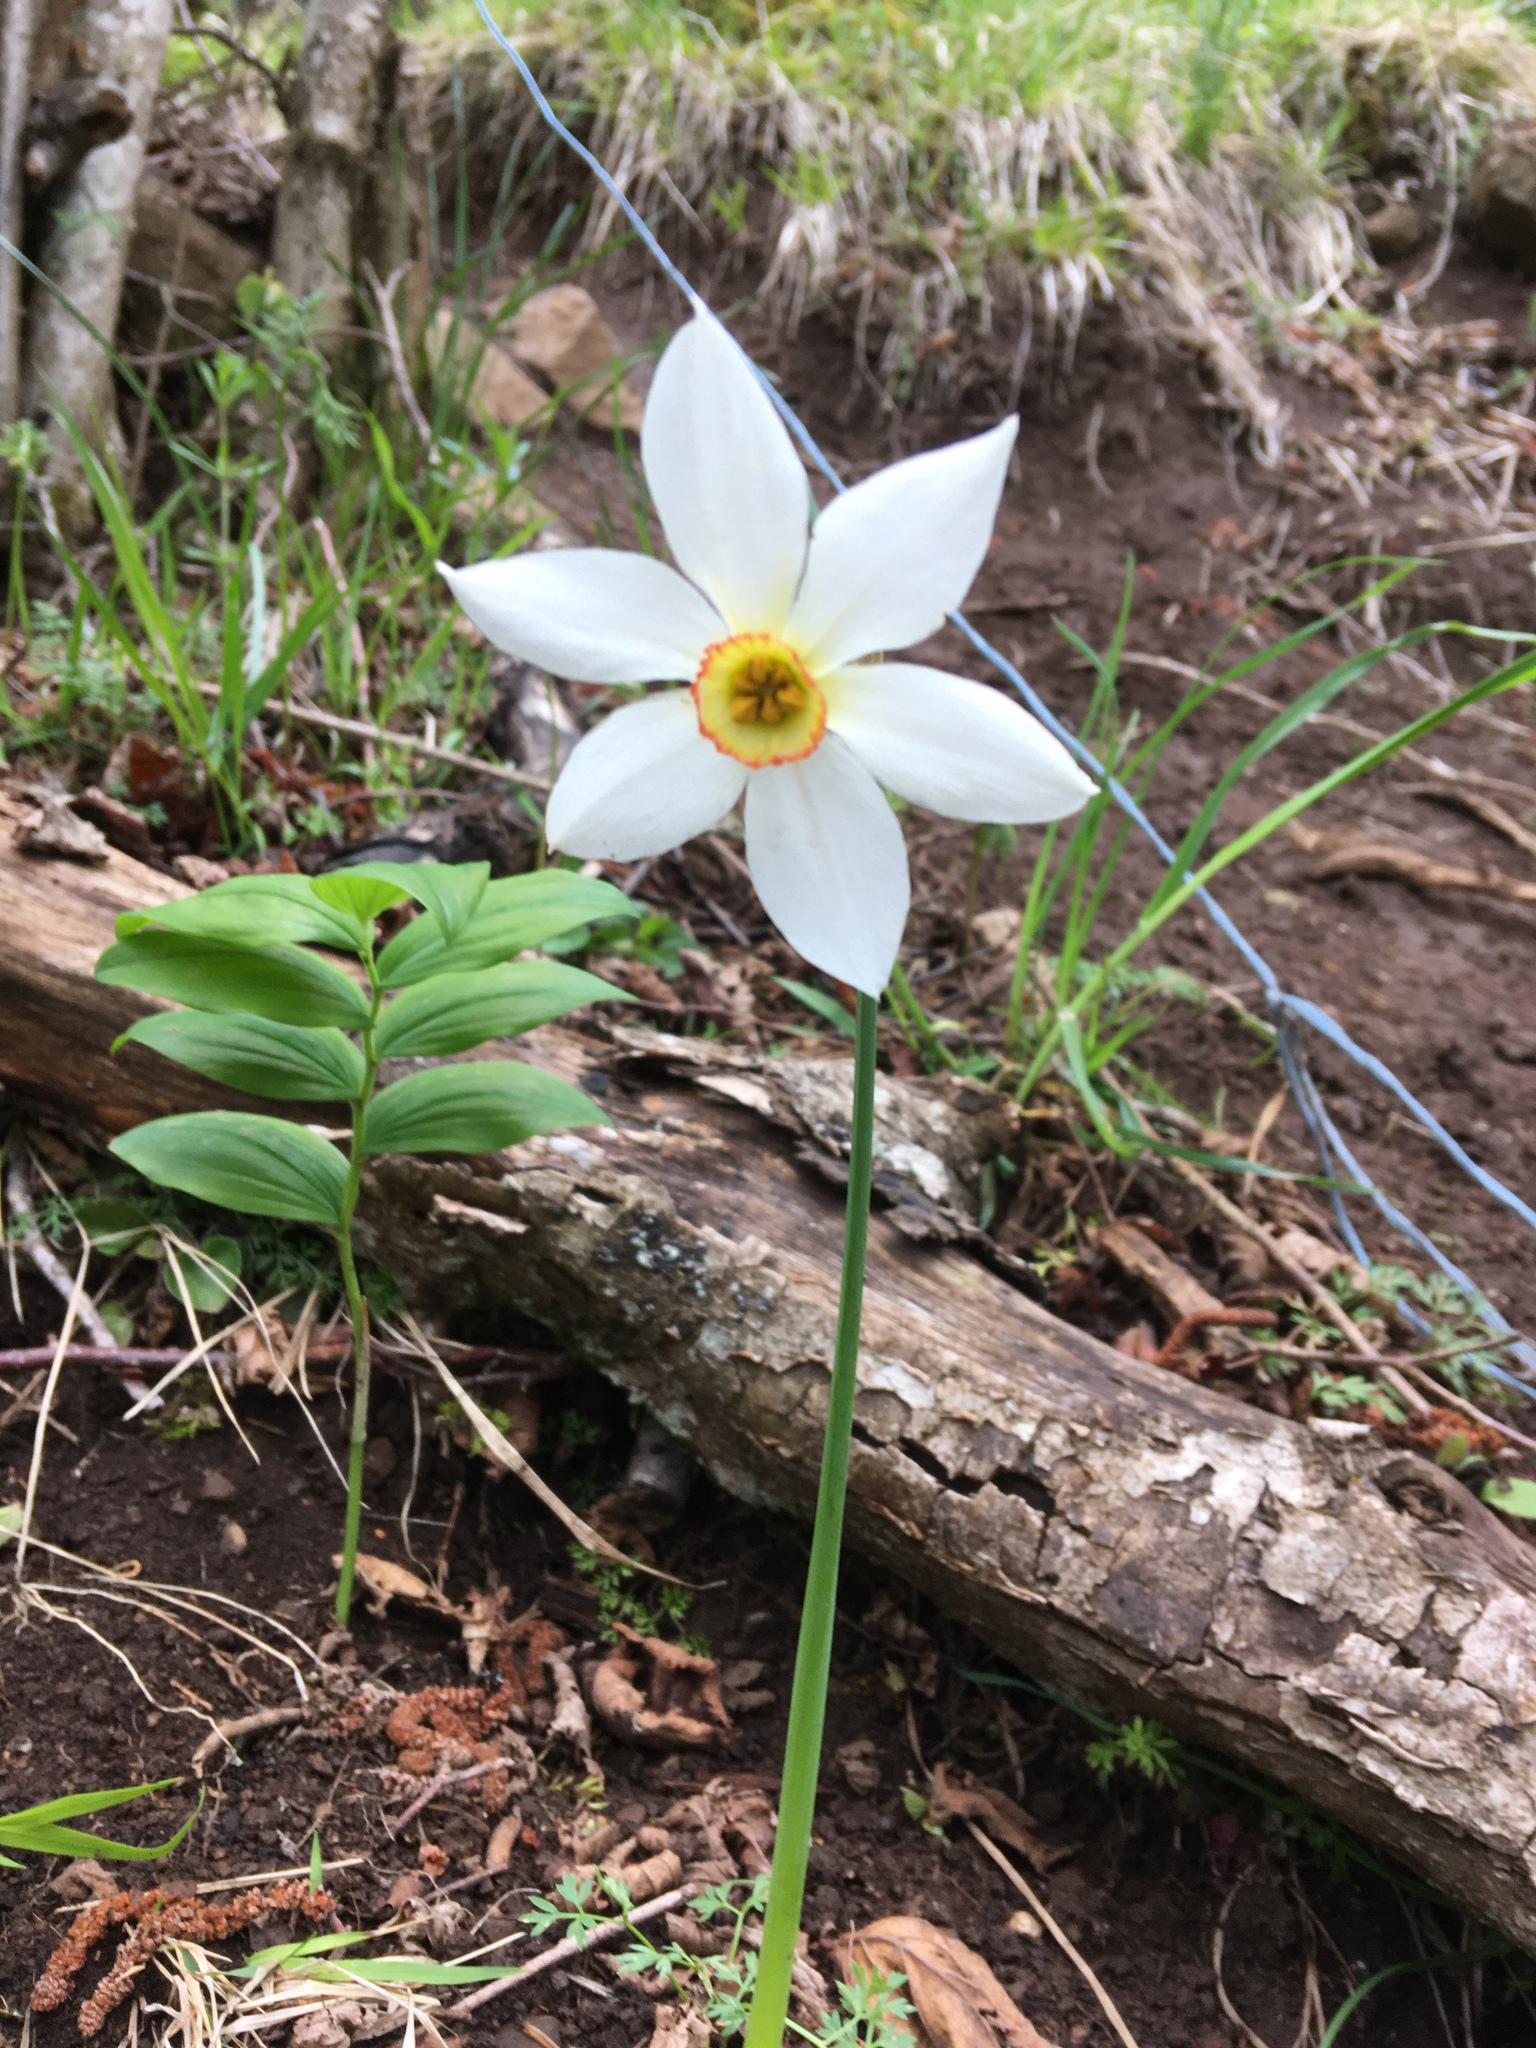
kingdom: Plantae
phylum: Tracheophyta
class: Liliopsida
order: Asparagales
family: Amaryllidaceae
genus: Narcissus
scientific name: Narcissus poeticus
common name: Pheasant's-eye daffodil
